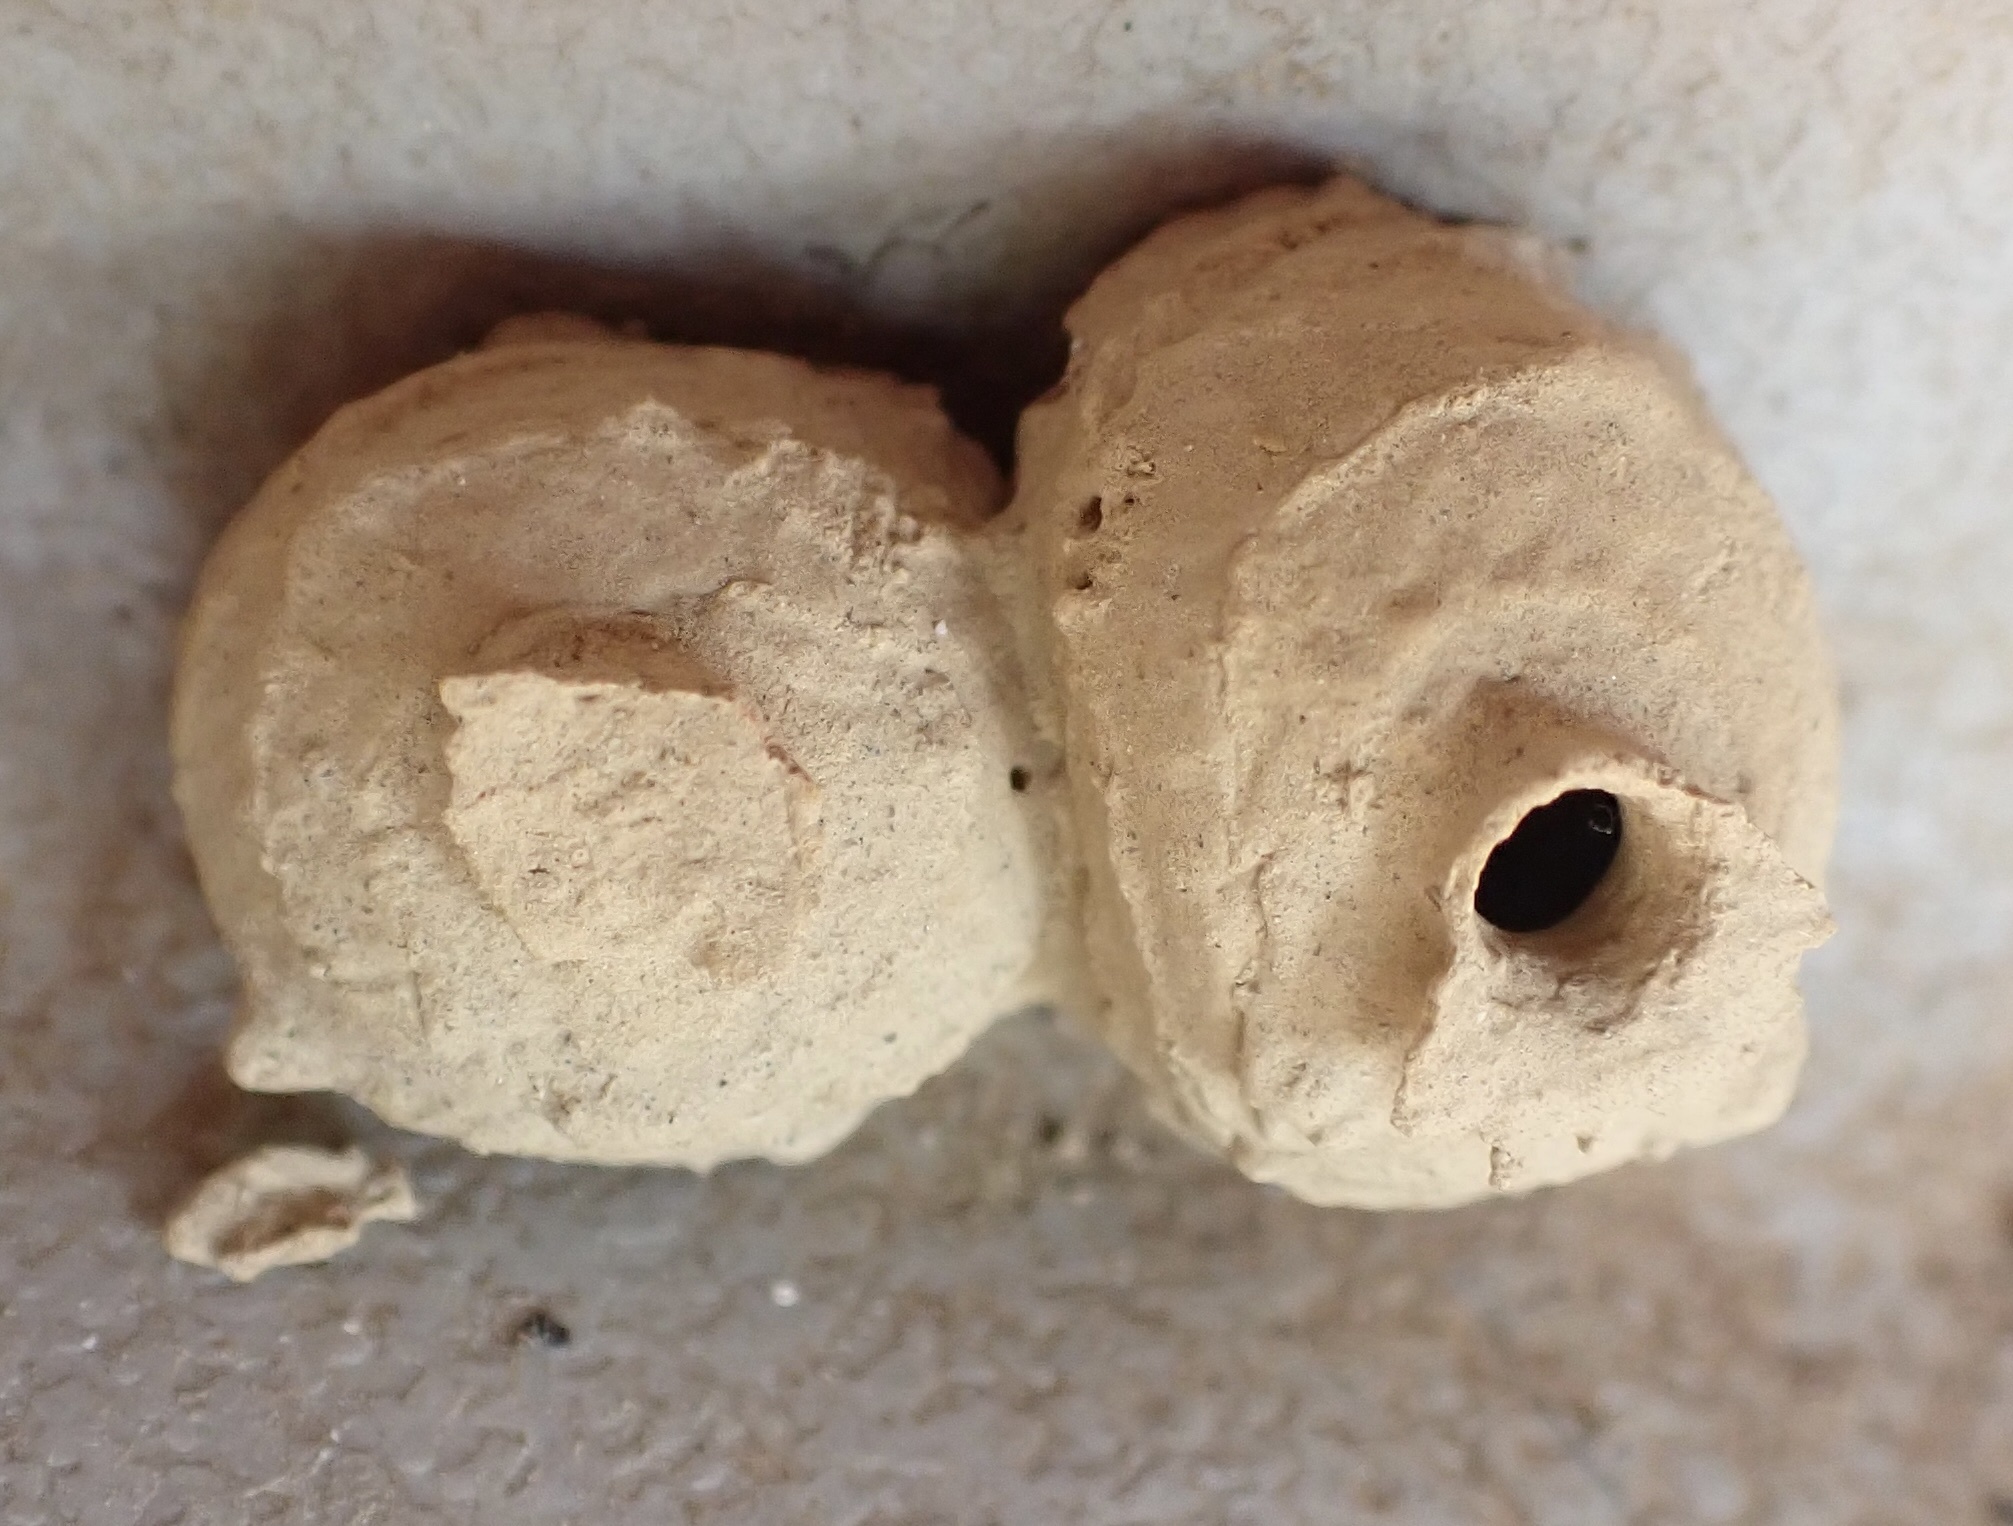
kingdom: Animalia
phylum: Arthropoda
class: Insecta
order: Hymenoptera
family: Vespidae
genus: Eumenes
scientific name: Eumenes
